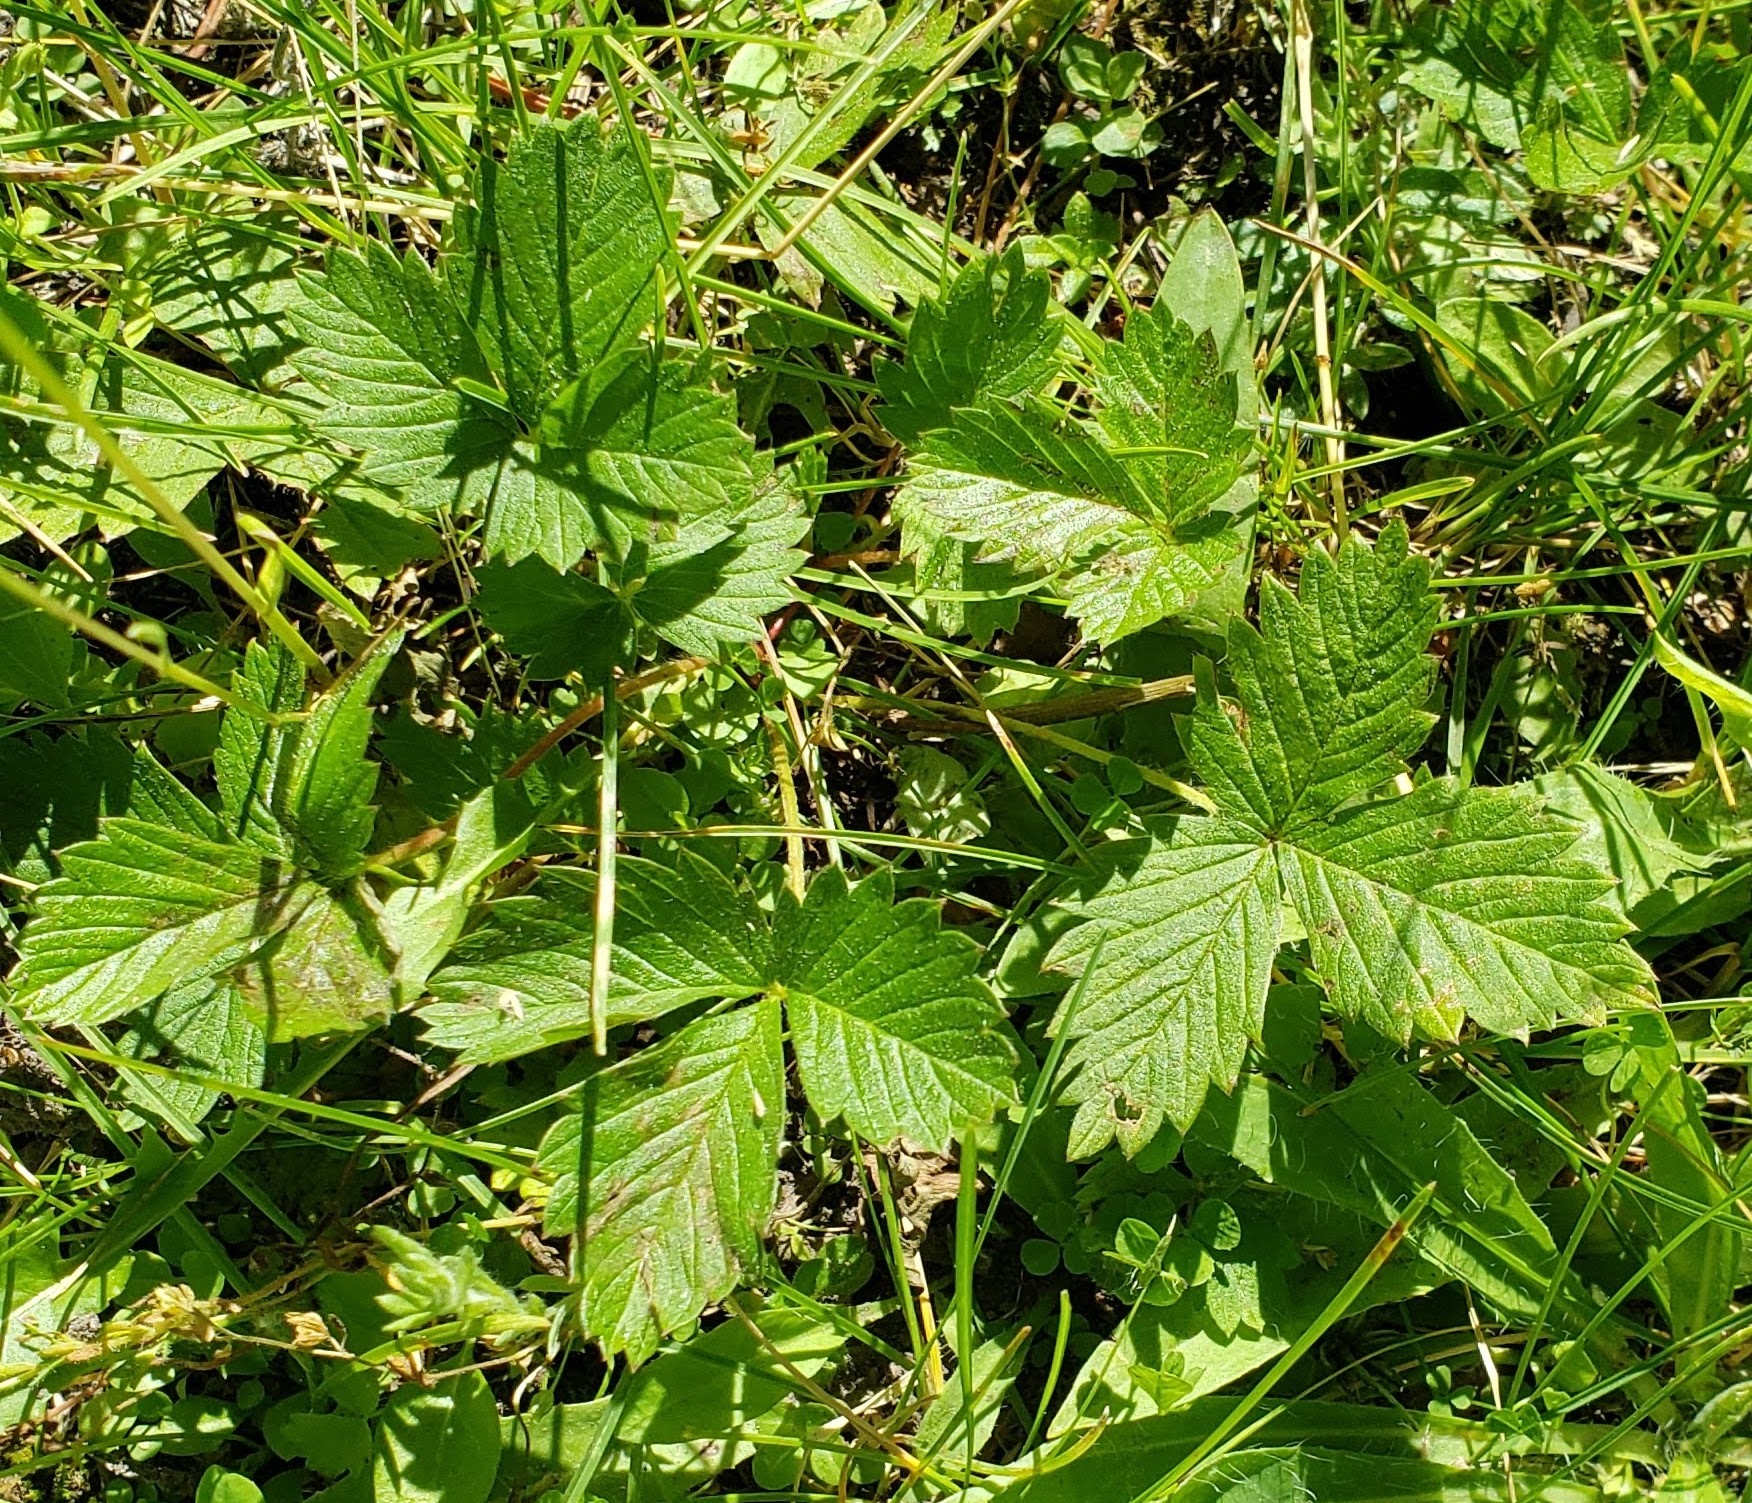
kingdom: Plantae
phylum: Tracheophyta
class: Magnoliopsida
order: Rosales
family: Rosaceae
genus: Fragaria
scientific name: Fragaria vesca
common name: Wild strawberry
